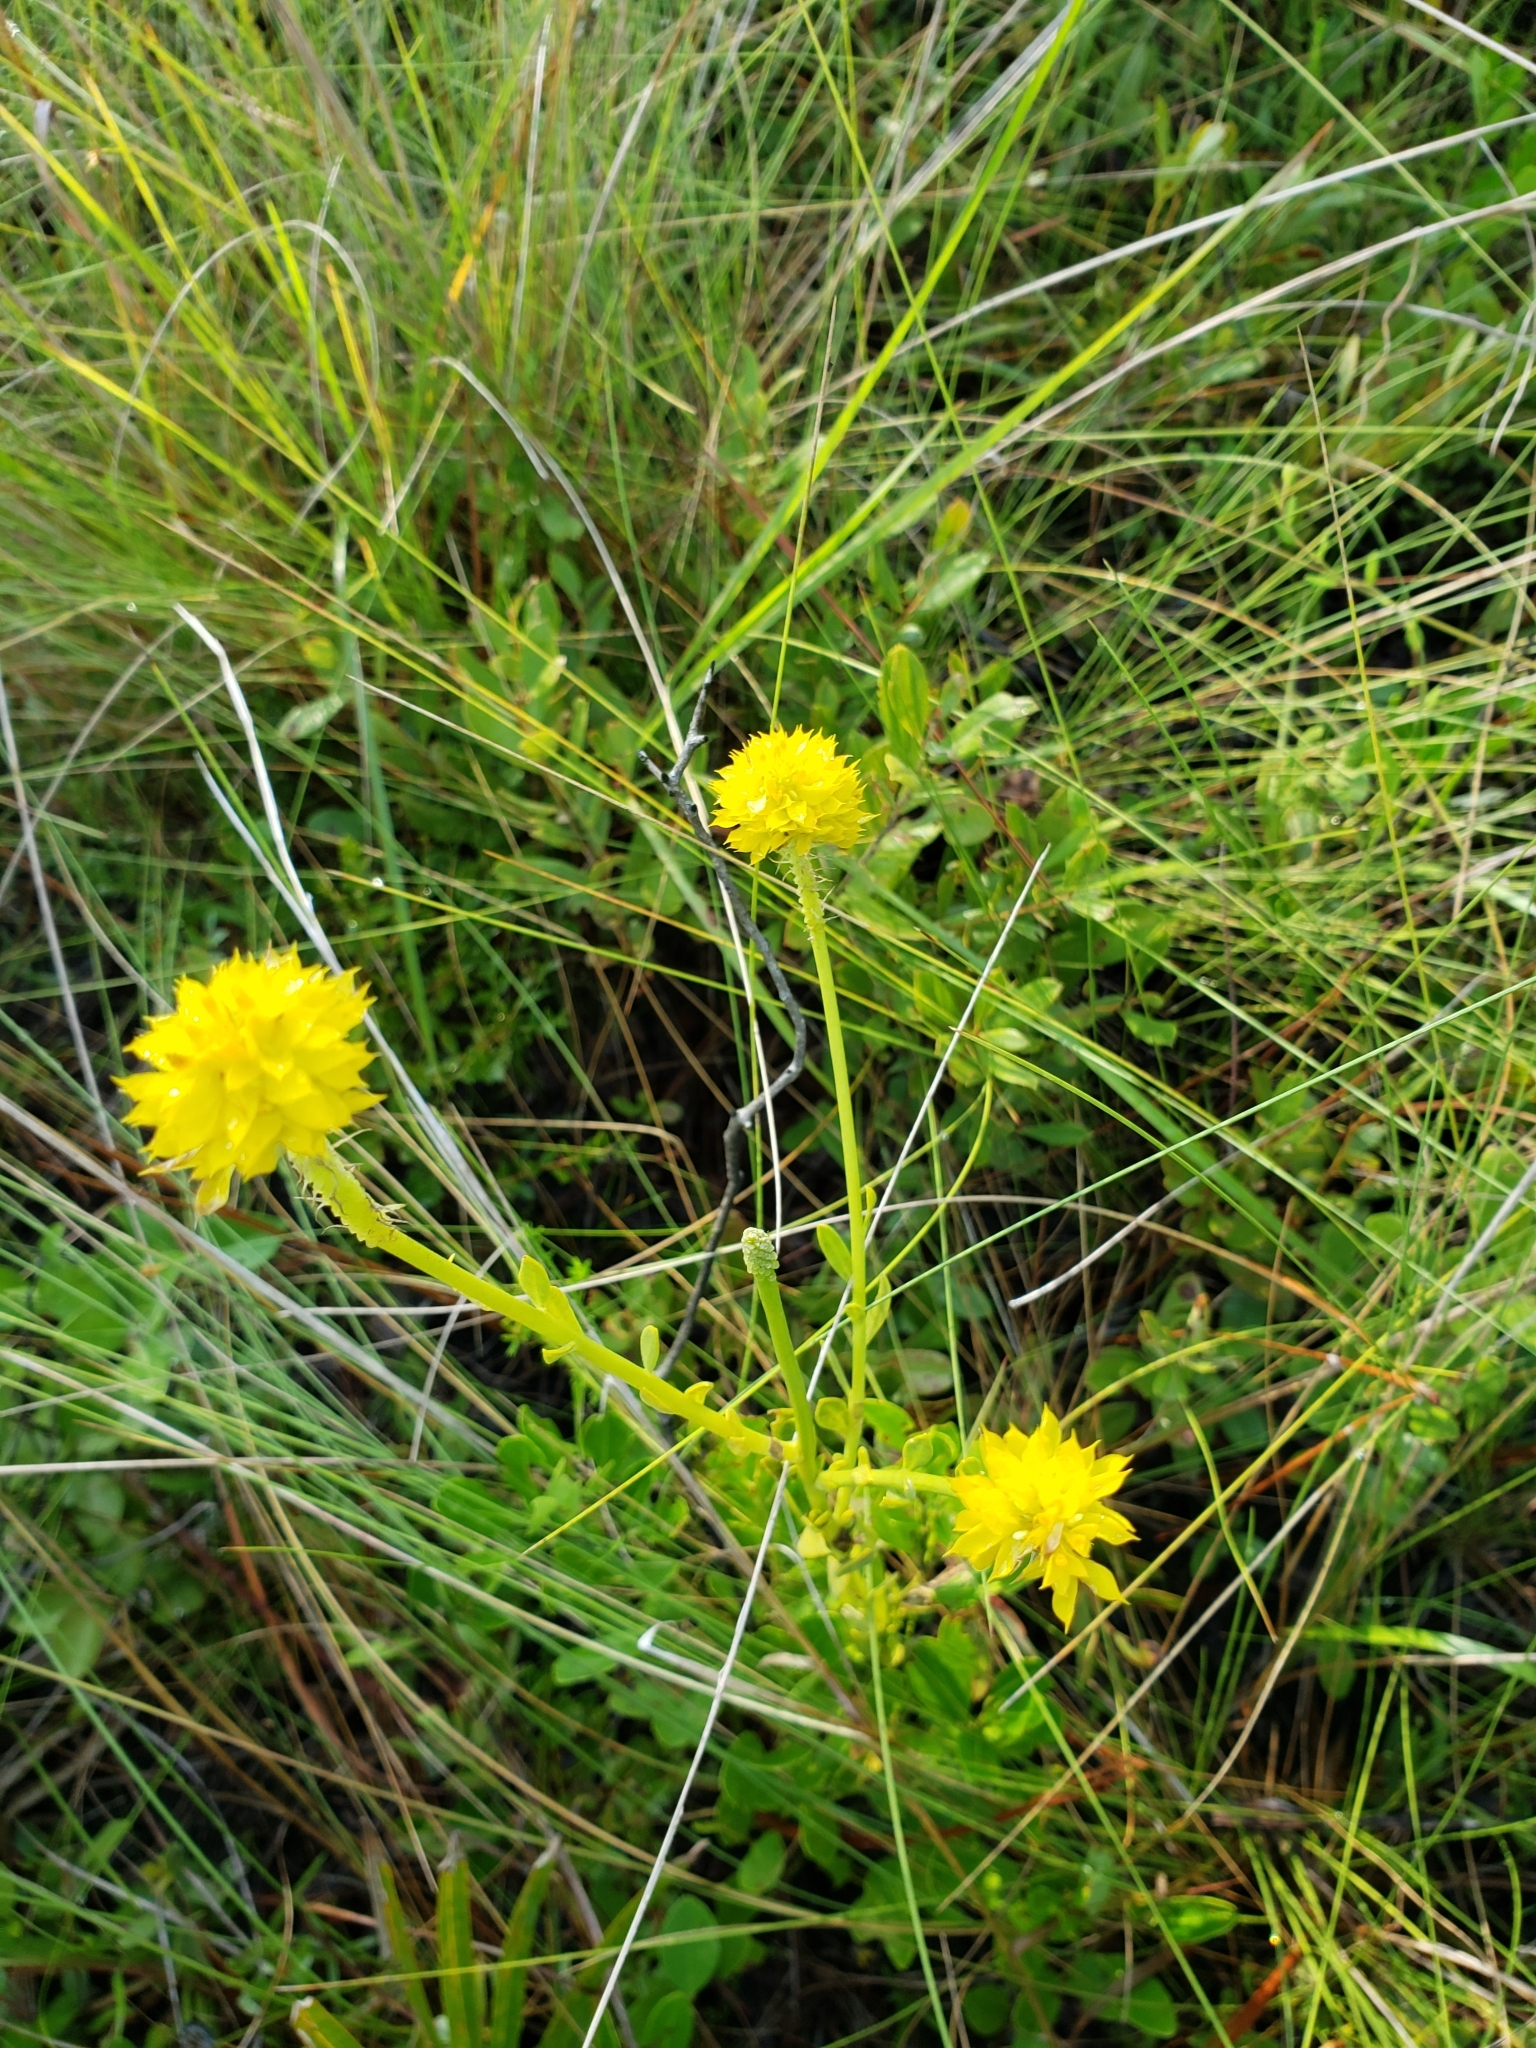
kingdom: Plantae
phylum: Tracheophyta
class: Magnoliopsida
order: Fabales
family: Polygalaceae
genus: Polygala
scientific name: Polygala rugelii
